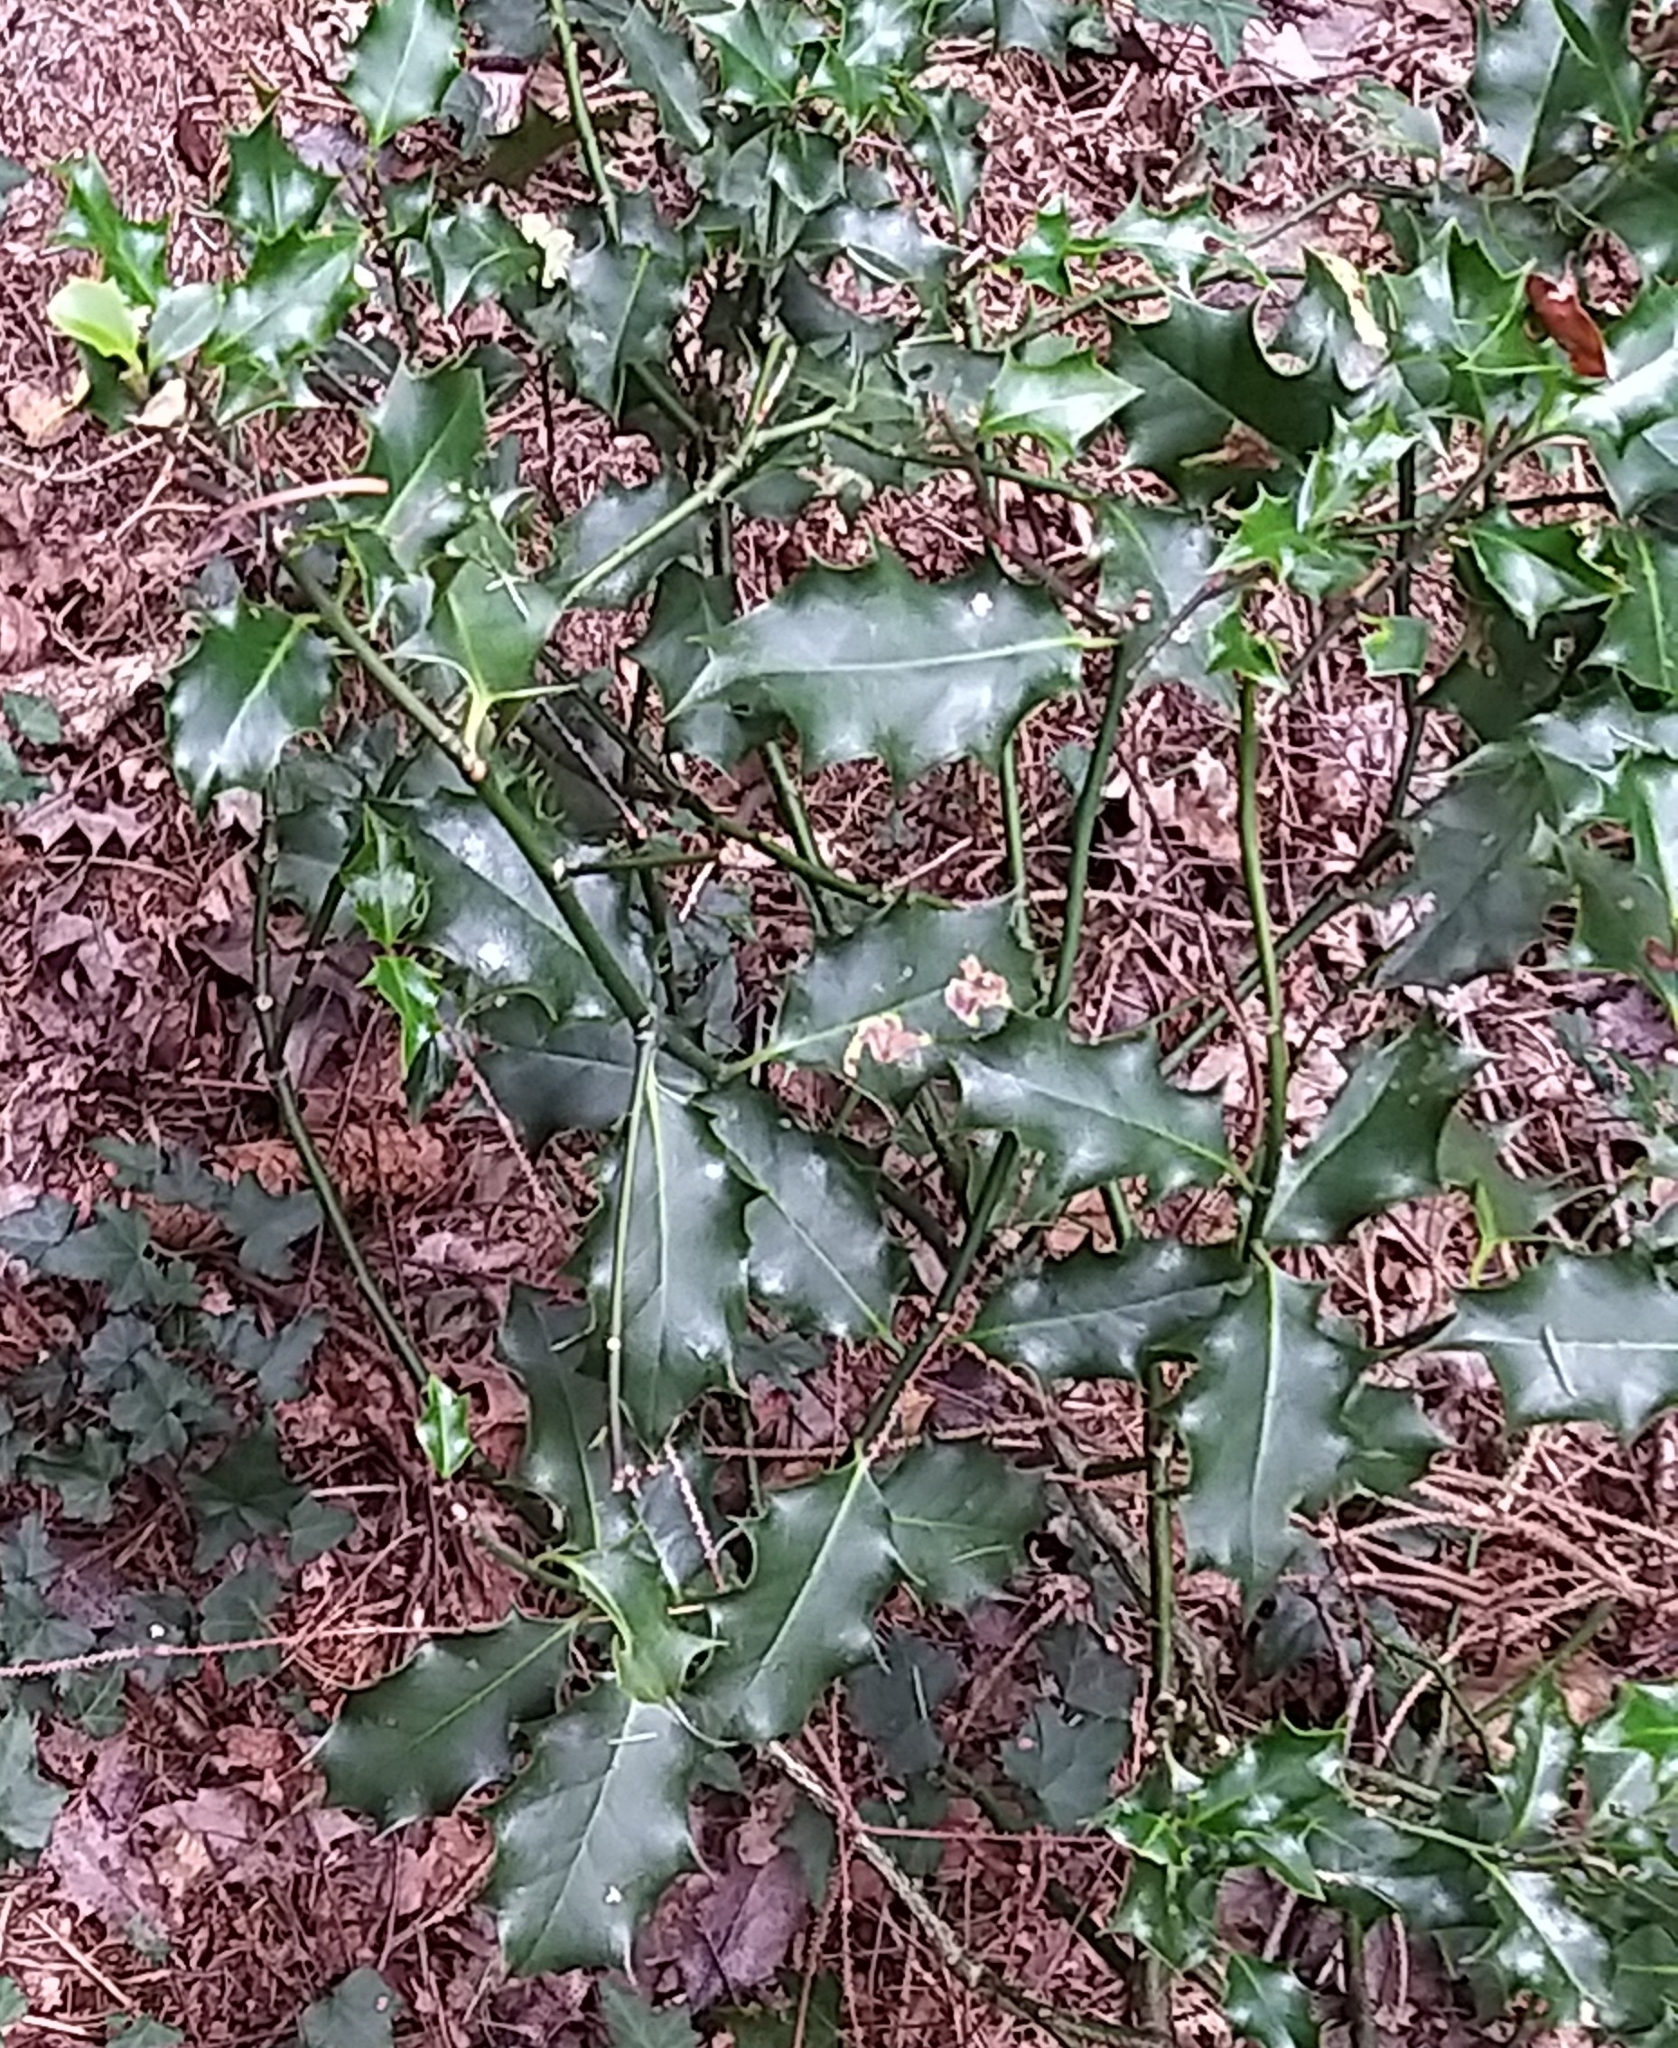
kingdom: Plantae
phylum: Tracheophyta
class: Magnoliopsida
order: Aquifoliales
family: Aquifoliaceae
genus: Ilex
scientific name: Ilex aquifolium
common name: English holly
